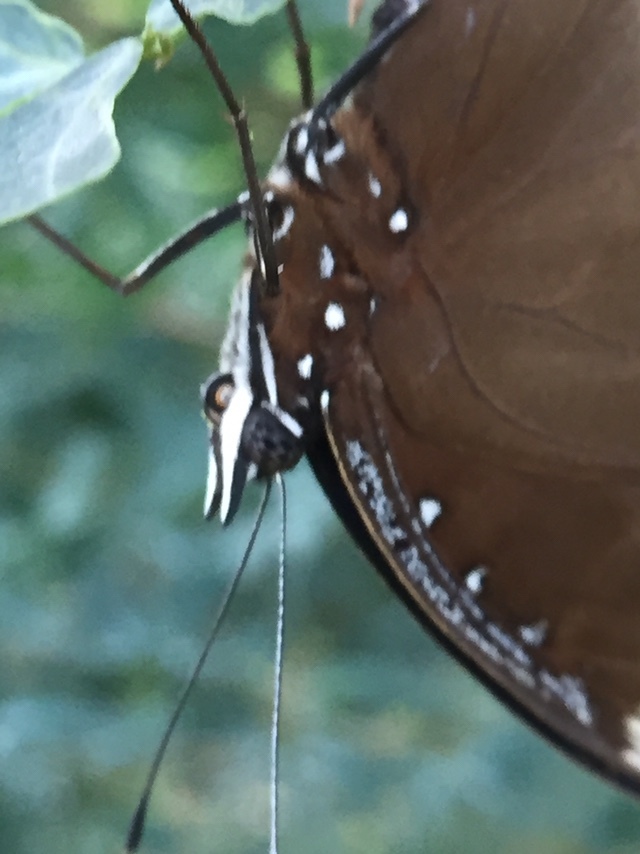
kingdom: Animalia
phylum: Arthropoda
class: Insecta
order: Lepidoptera
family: Nymphalidae
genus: Hypolimnas
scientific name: Hypolimnas bolina
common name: Great eggfly
